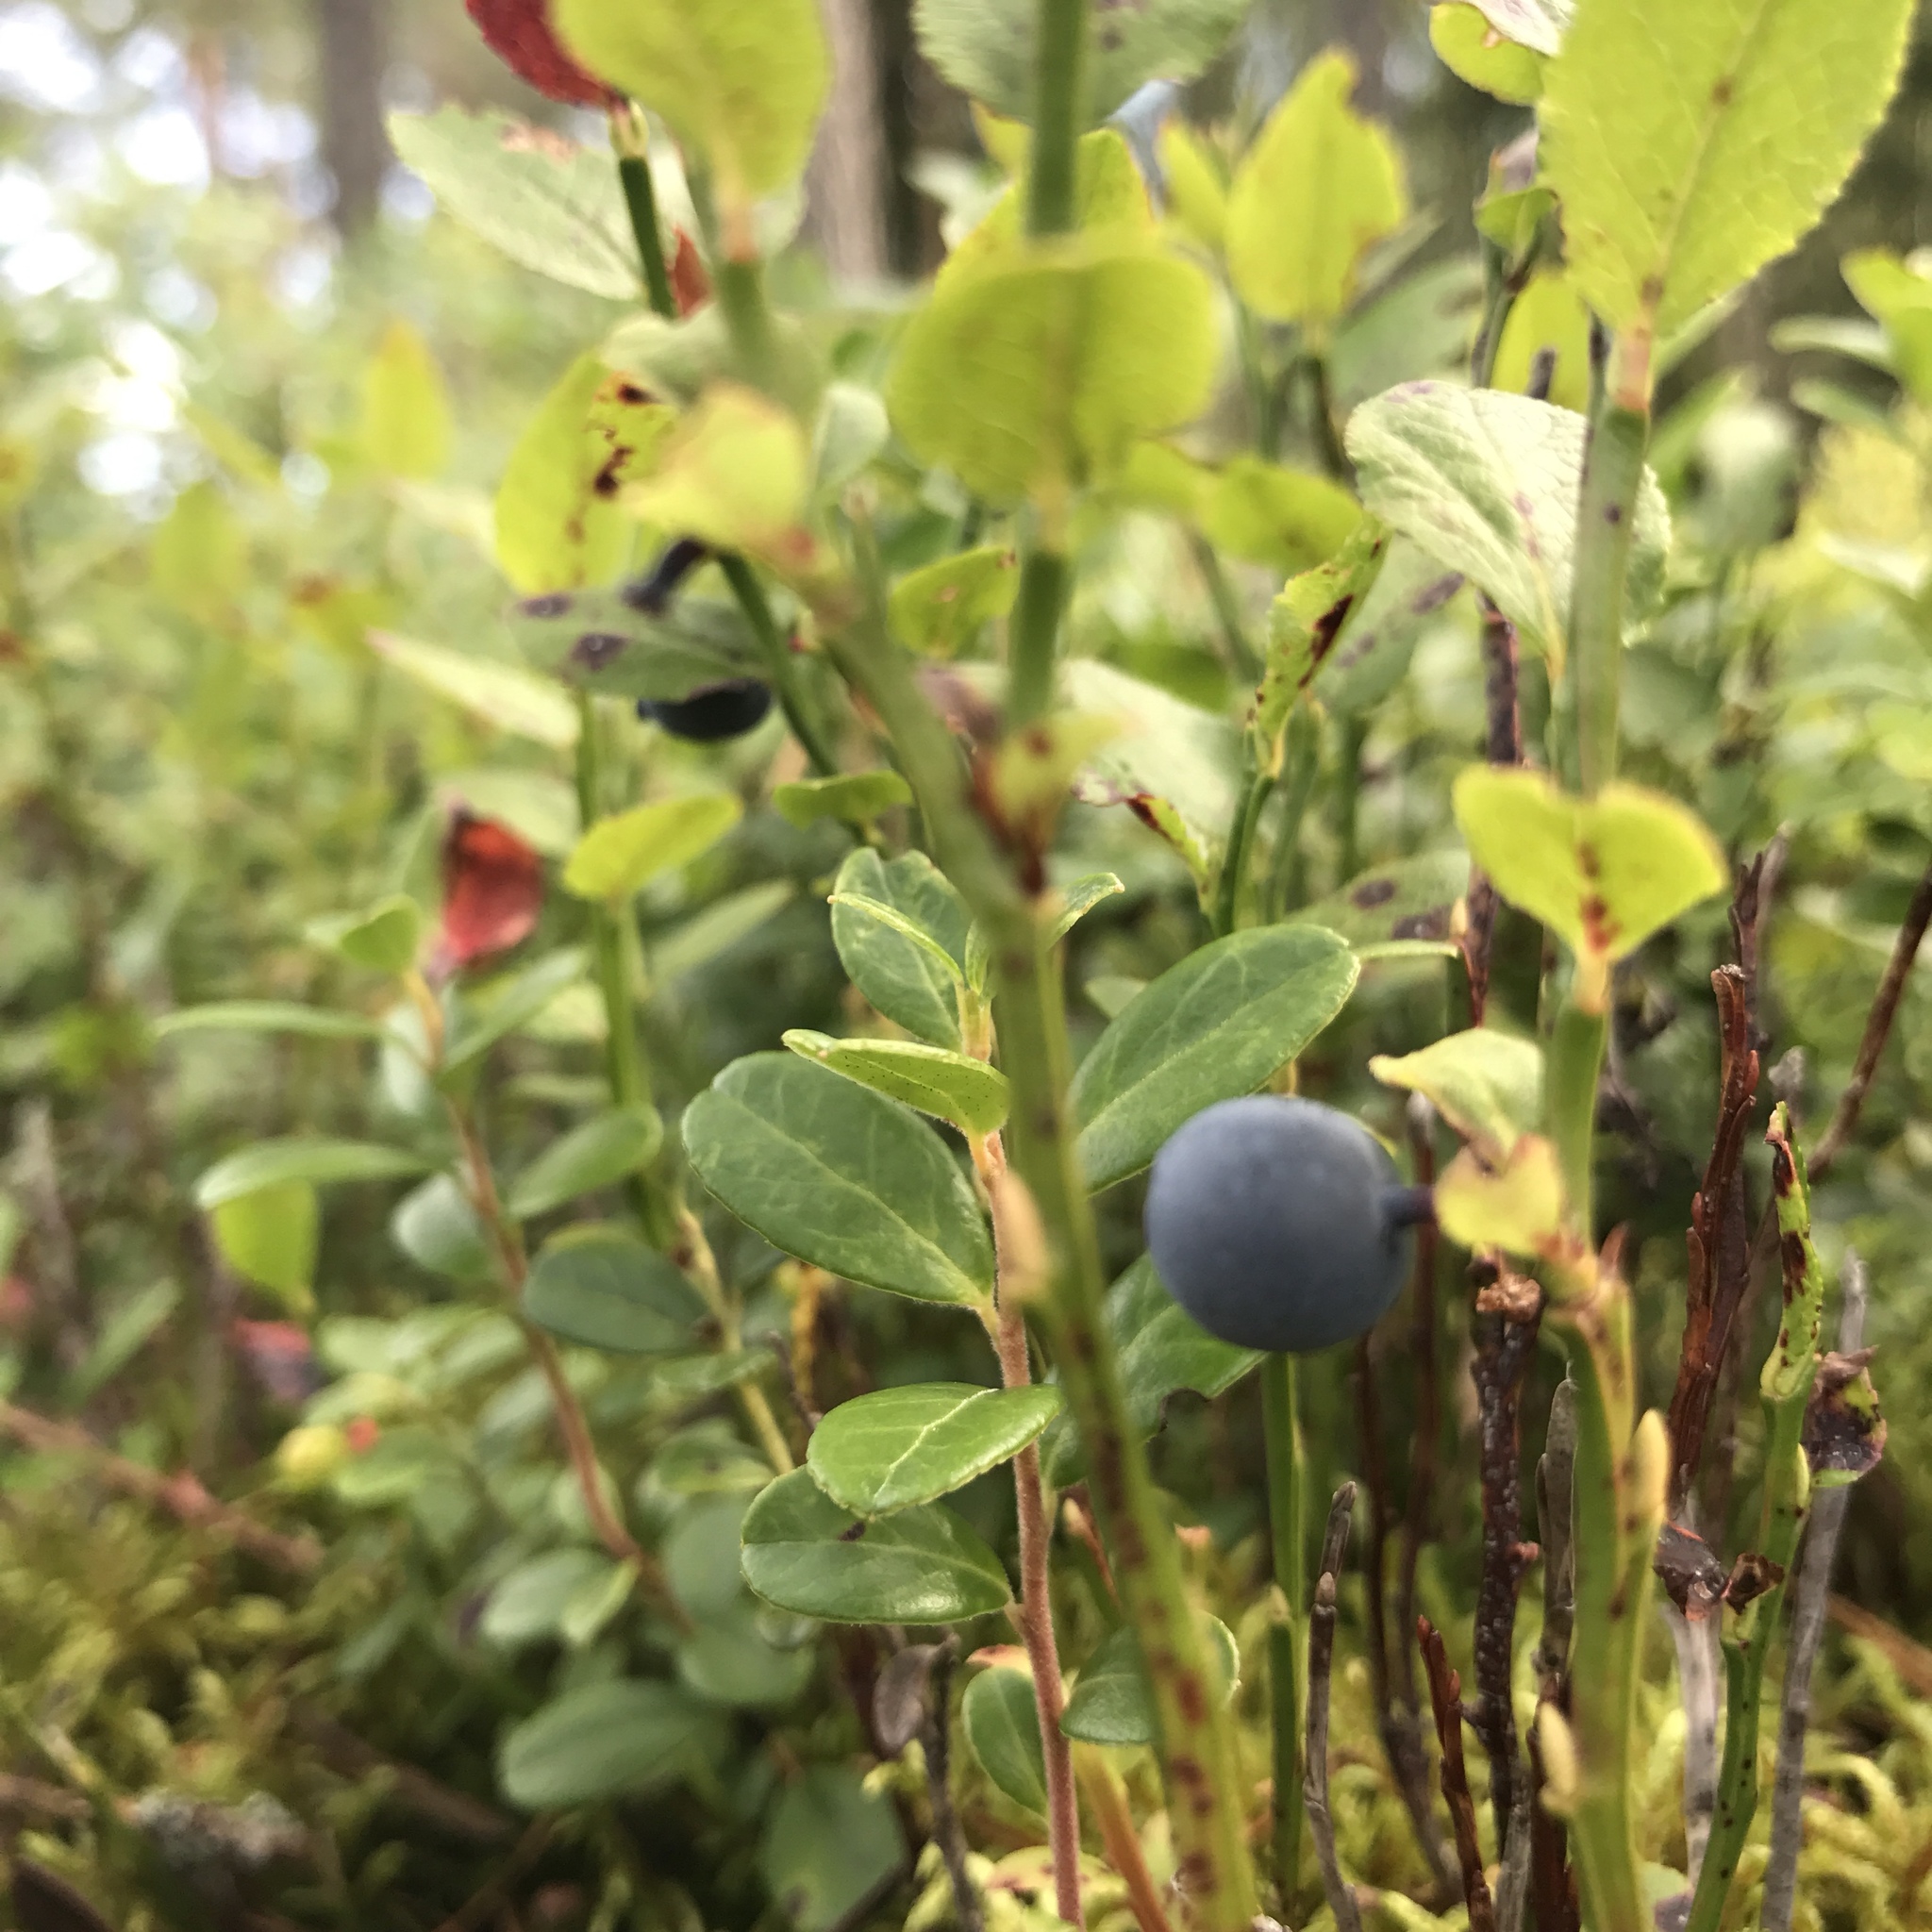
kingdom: Plantae
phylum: Tracheophyta
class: Magnoliopsida
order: Ericales
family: Ericaceae
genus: Vaccinium
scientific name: Vaccinium myrtillus
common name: Bilberry
